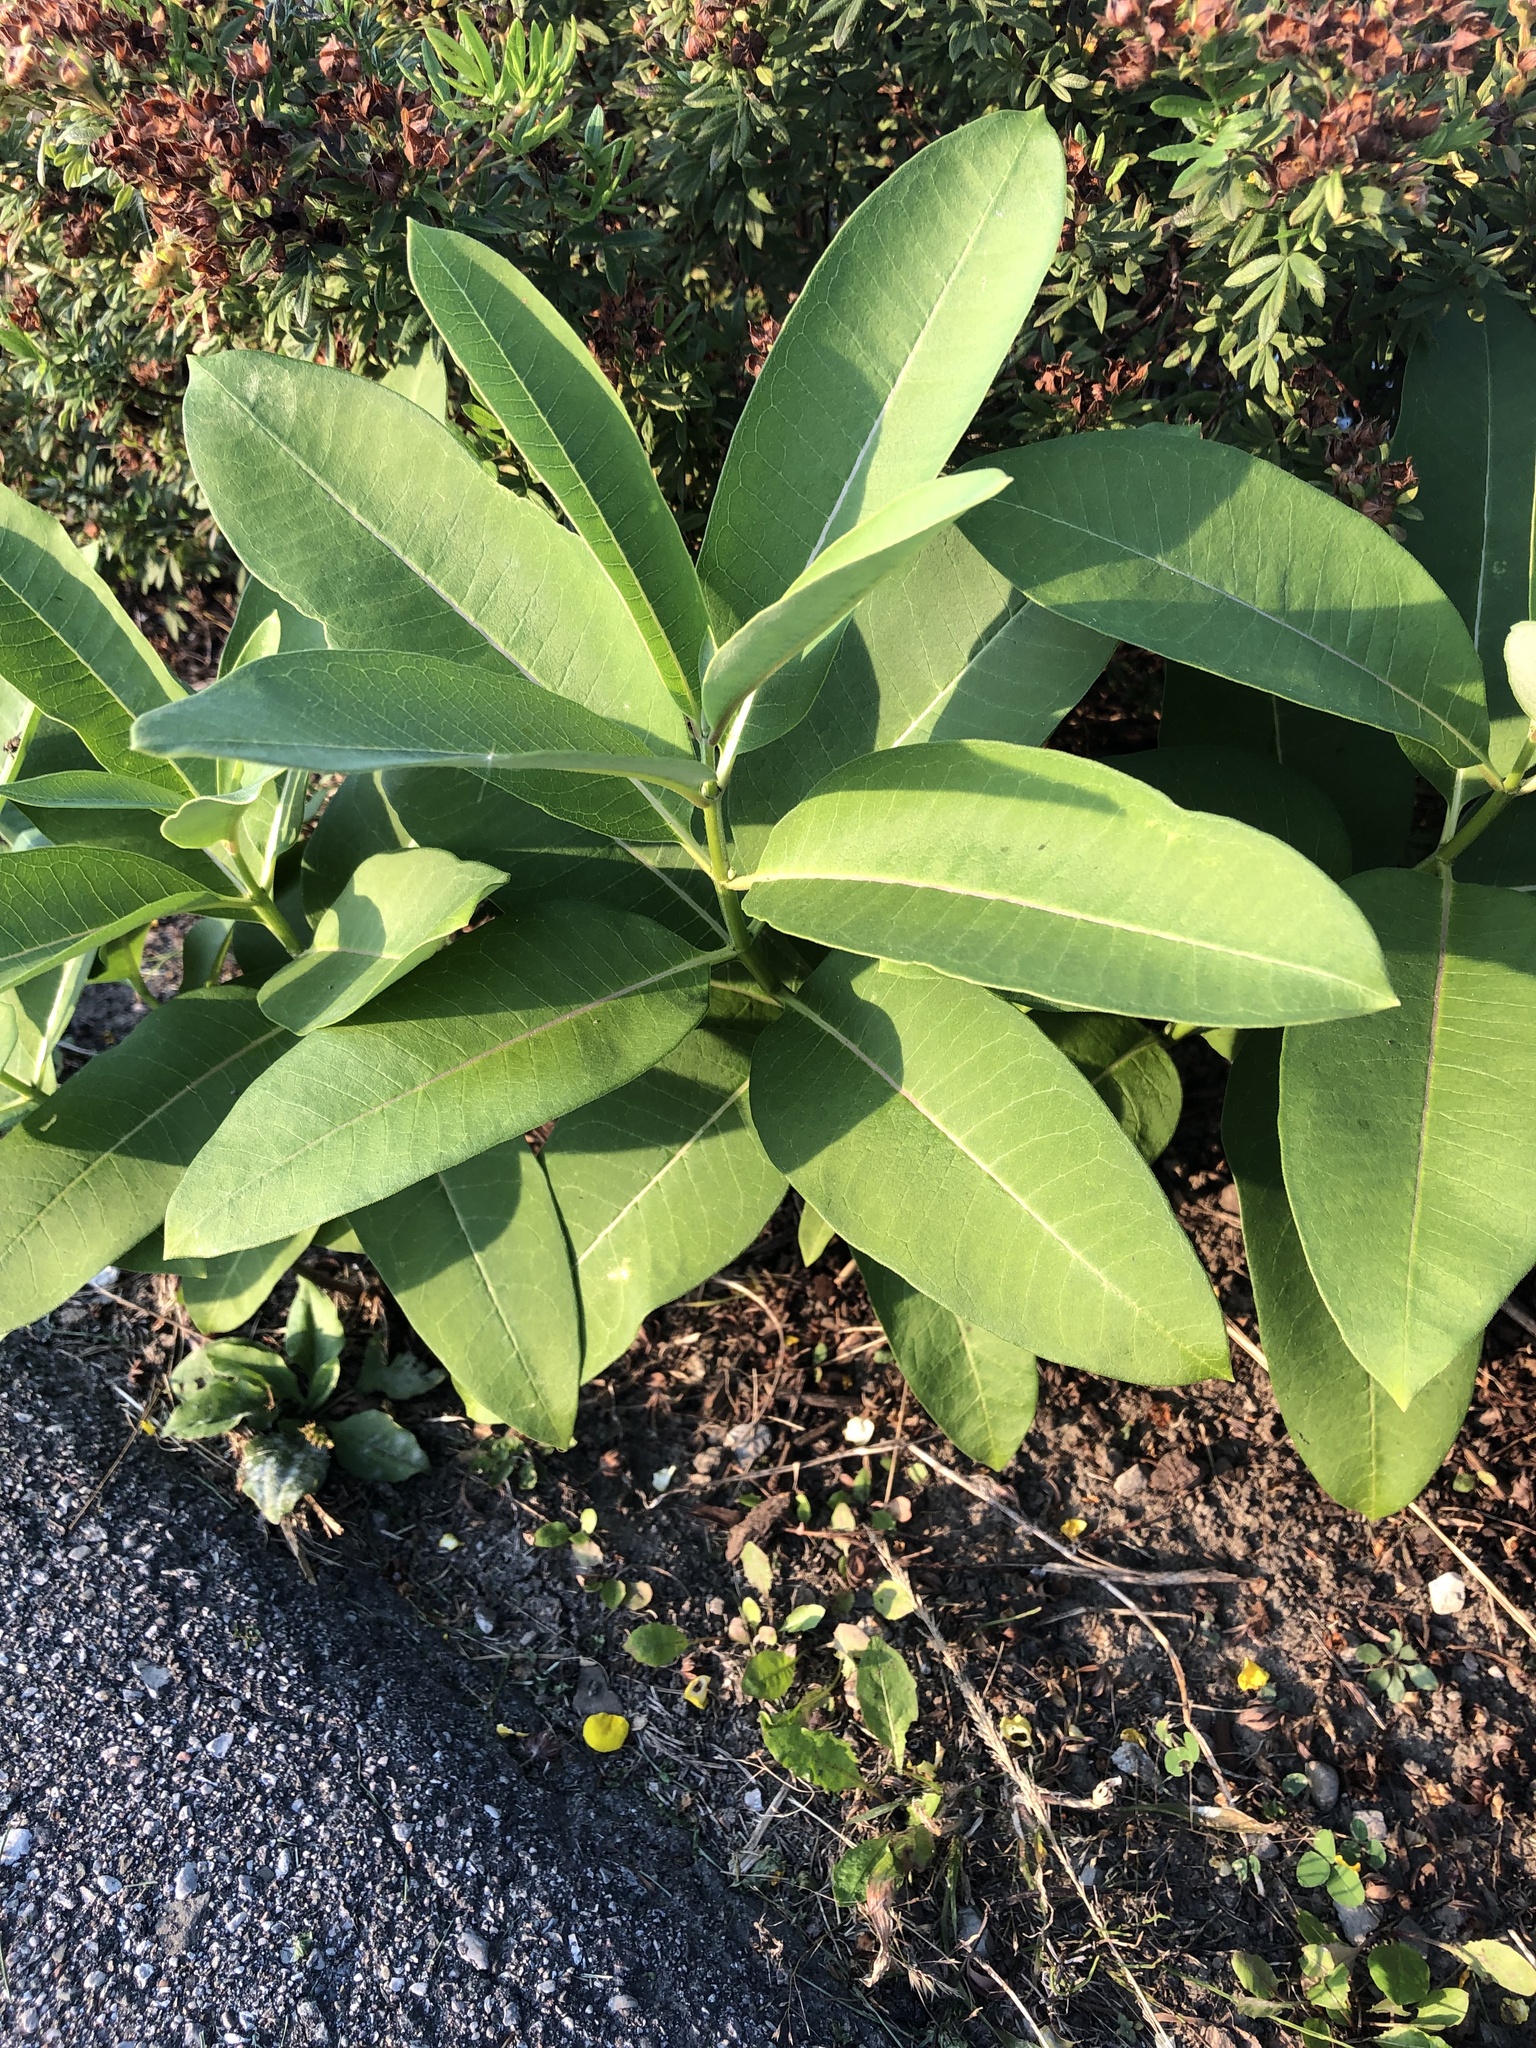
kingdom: Plantae
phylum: Tracheophyta
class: Magnoliopsida
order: Gentianales
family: Apocynaceae
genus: Asclepias
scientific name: Asclepias syriaca
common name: Common milkweed
